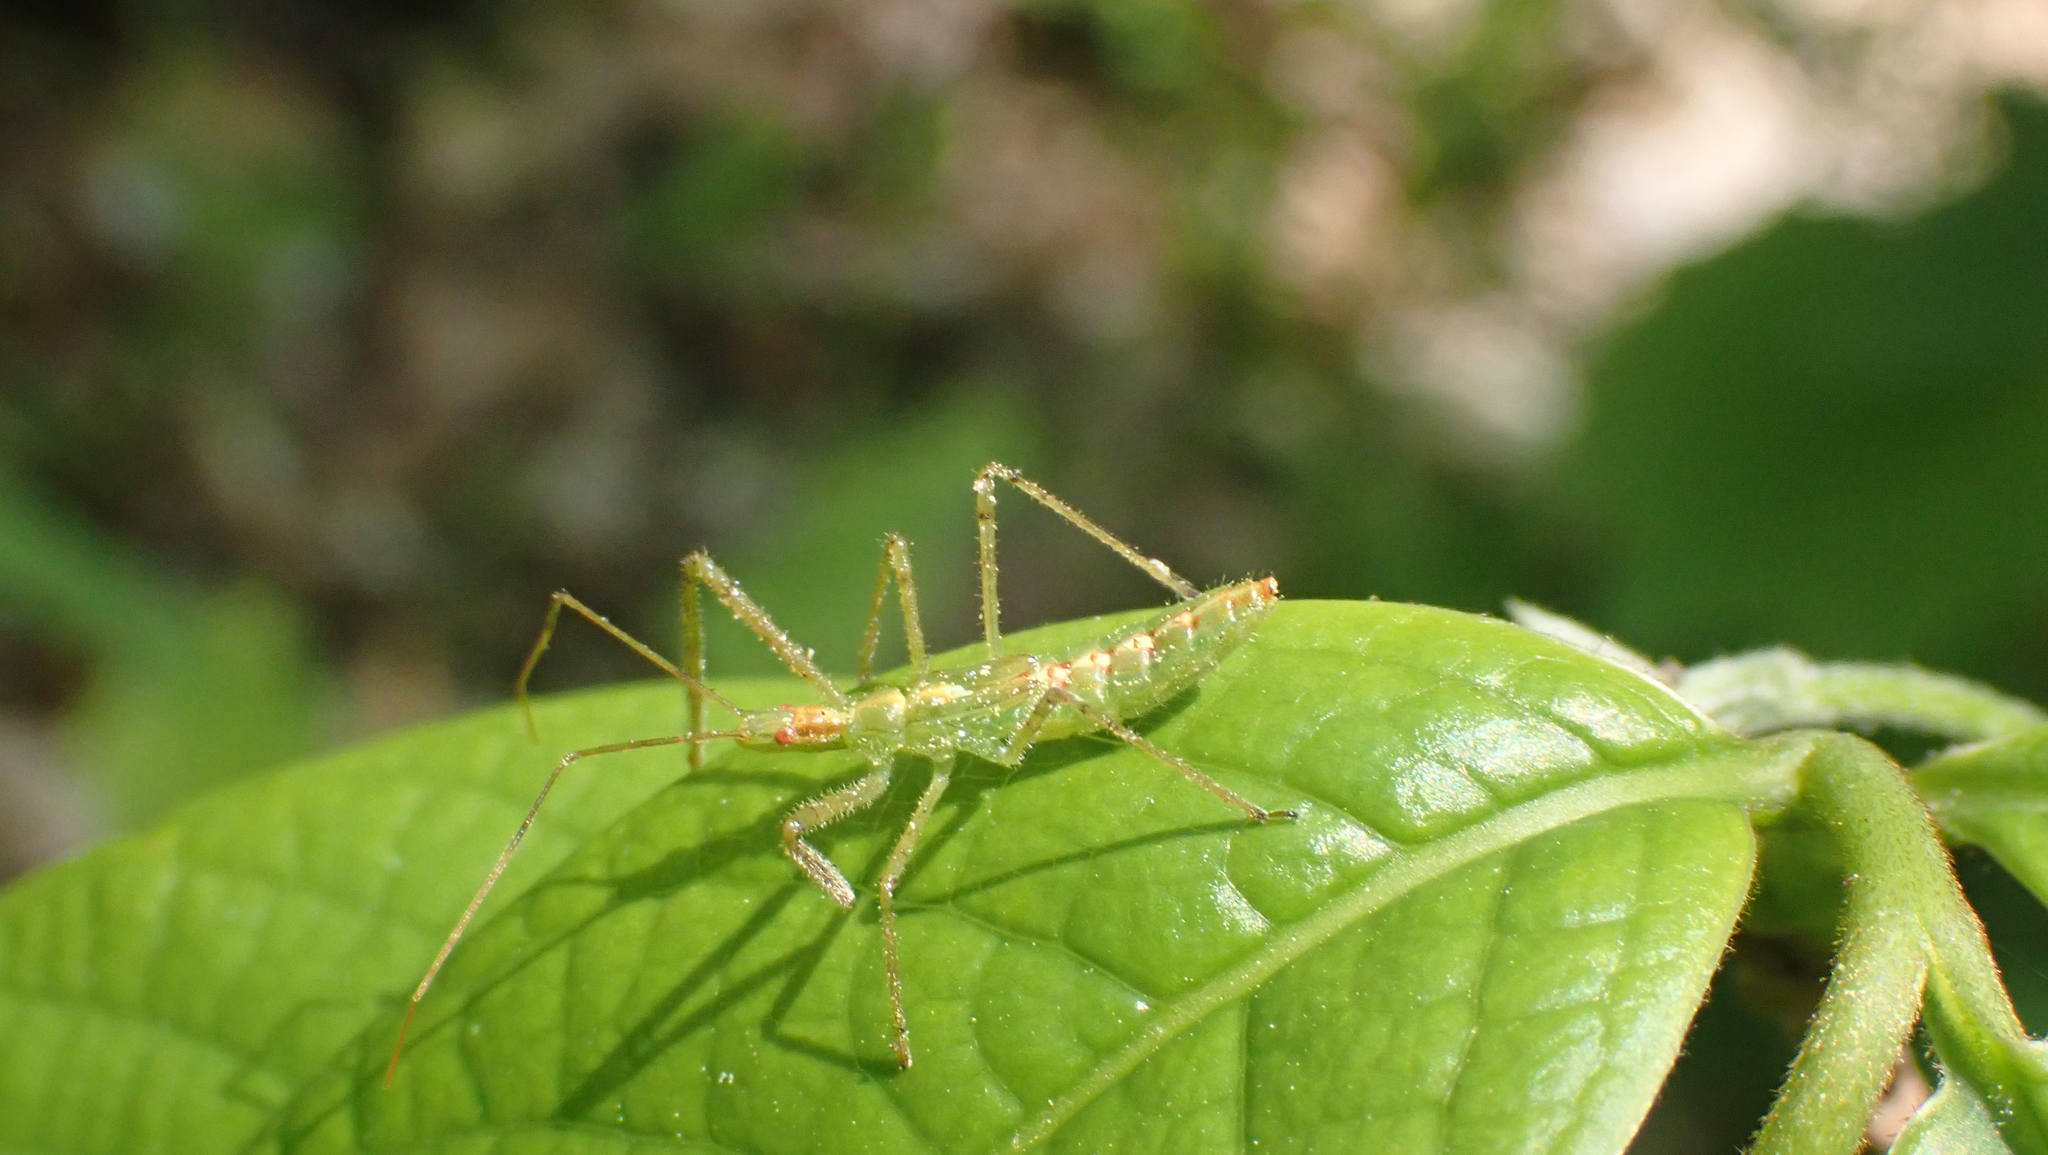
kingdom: Animalia
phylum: Arthropoda
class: Insecta
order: Hemiptera
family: Reduviidae
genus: Zelus
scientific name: Zelus luridus
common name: Pale green assassin bug
